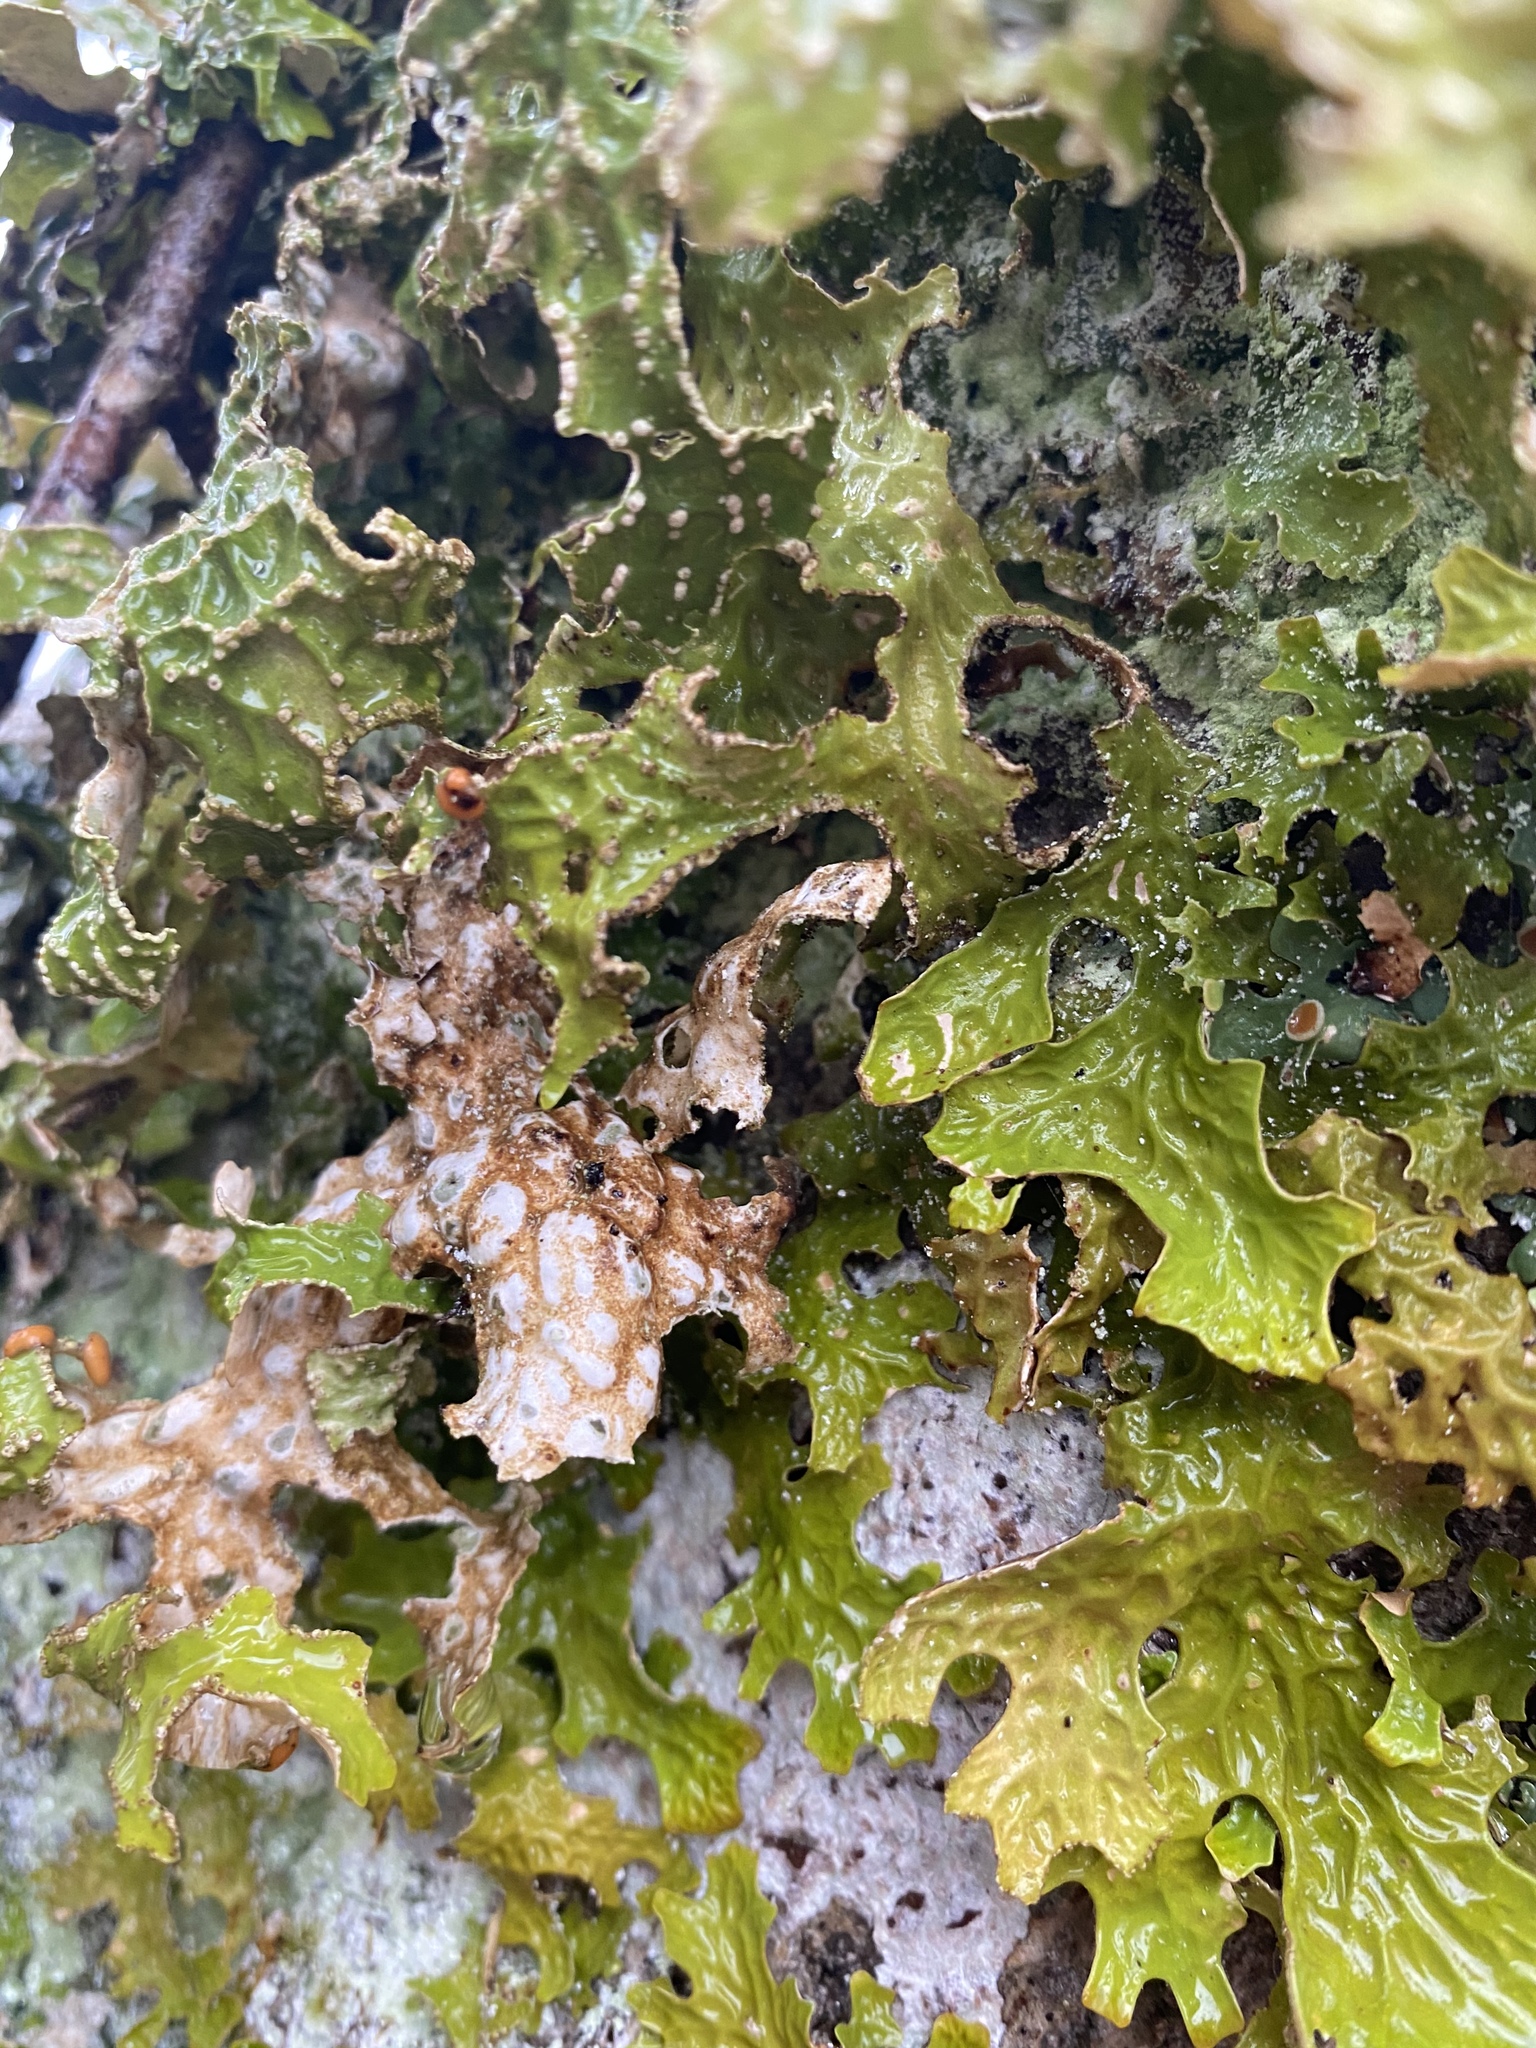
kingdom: Fungi
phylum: Ascomycota
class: Lecanoromycetes
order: Peltigerales
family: Lobariaceae
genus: Lobaria
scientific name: Lobaria pulmonaria
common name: Lungwort
